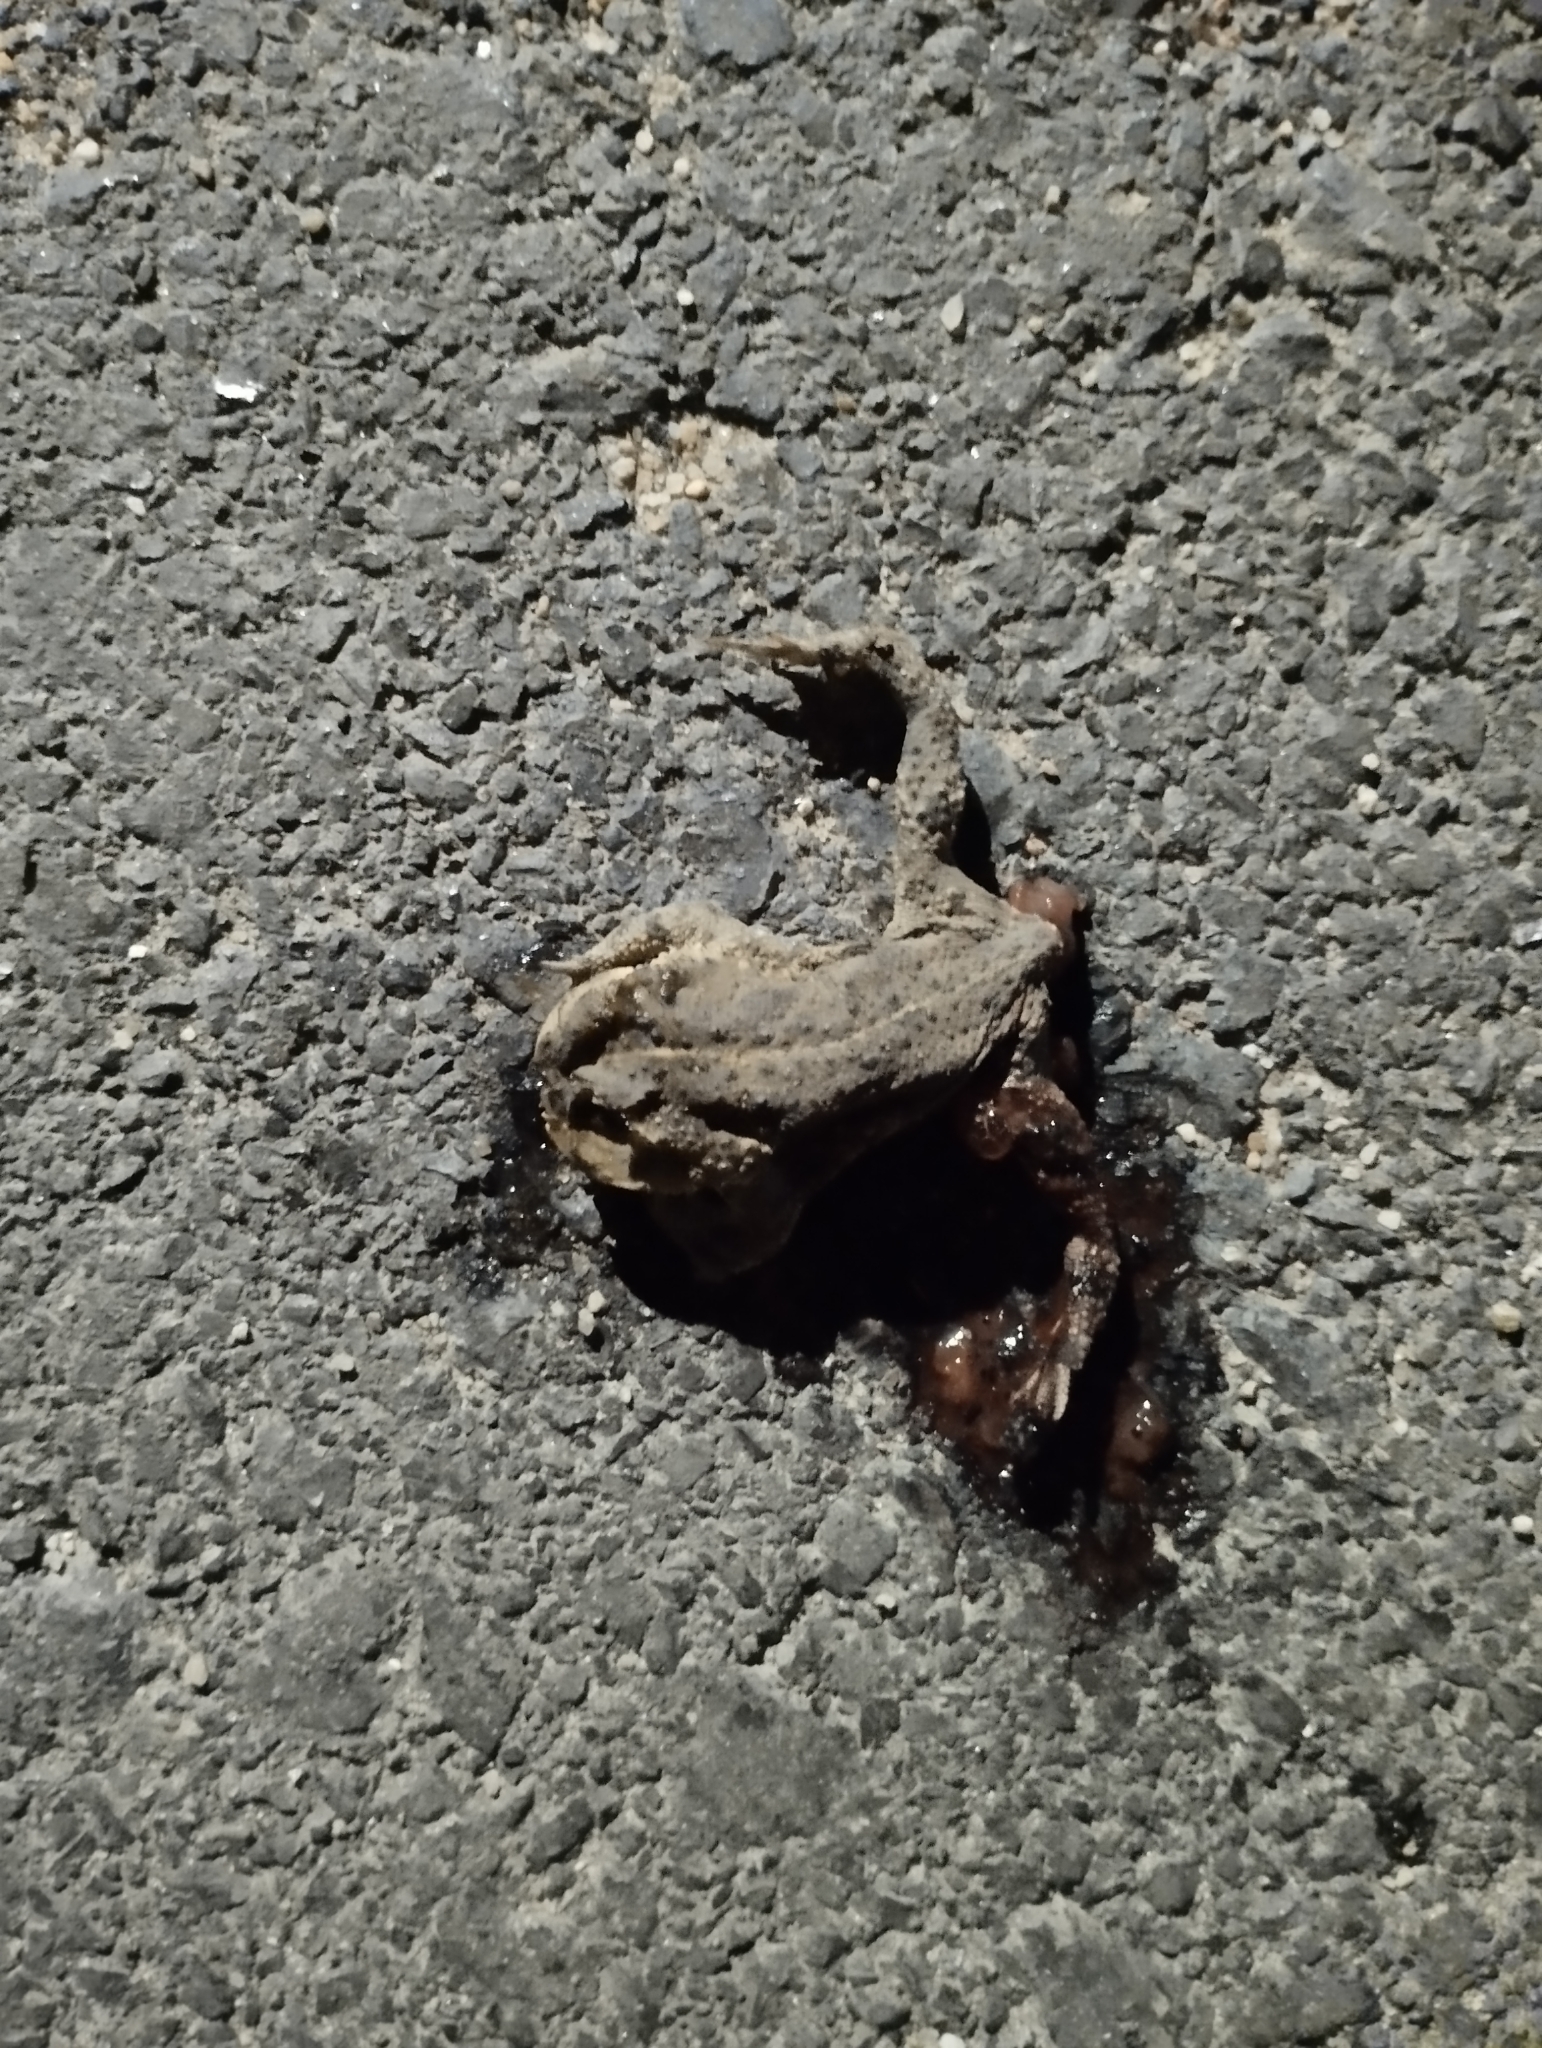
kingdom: Animalia
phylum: Chordata
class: Amphibia
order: Anura
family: Bufonidae
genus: Rhinella
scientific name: Rhinella dorbignyi
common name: D´orbigny’s toad
